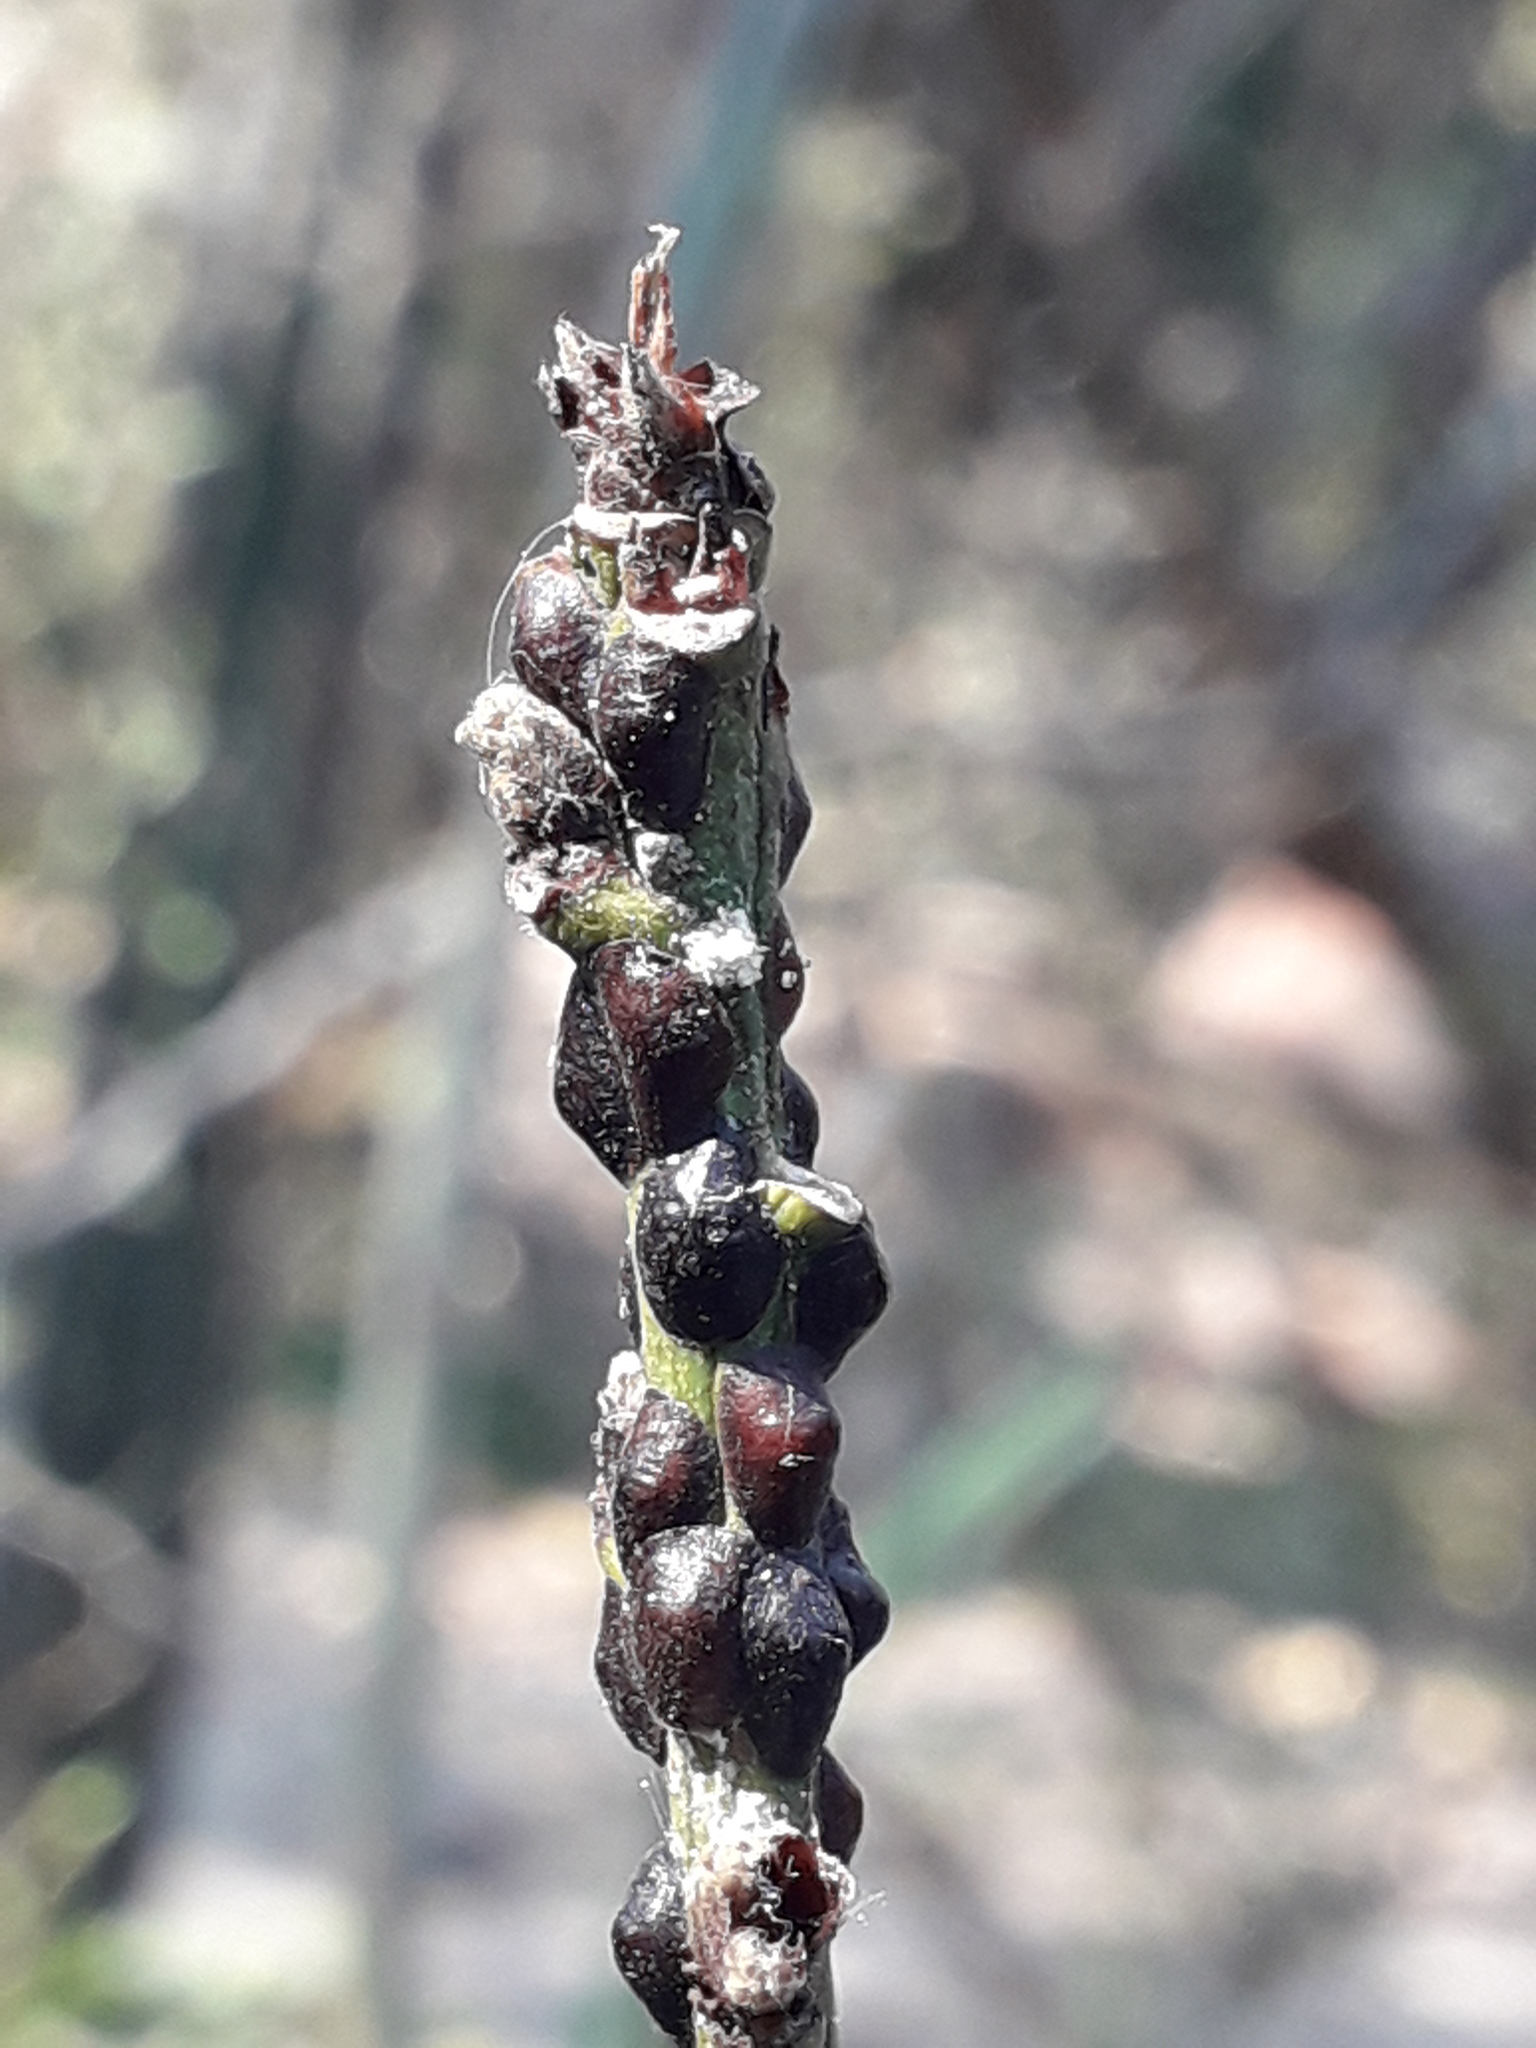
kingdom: Animalia
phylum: Arthropoda
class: Insecta
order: Hemiptera
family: Coccidae
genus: Parasaissetia
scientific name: Parasaissetia nigra
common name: Black scale
